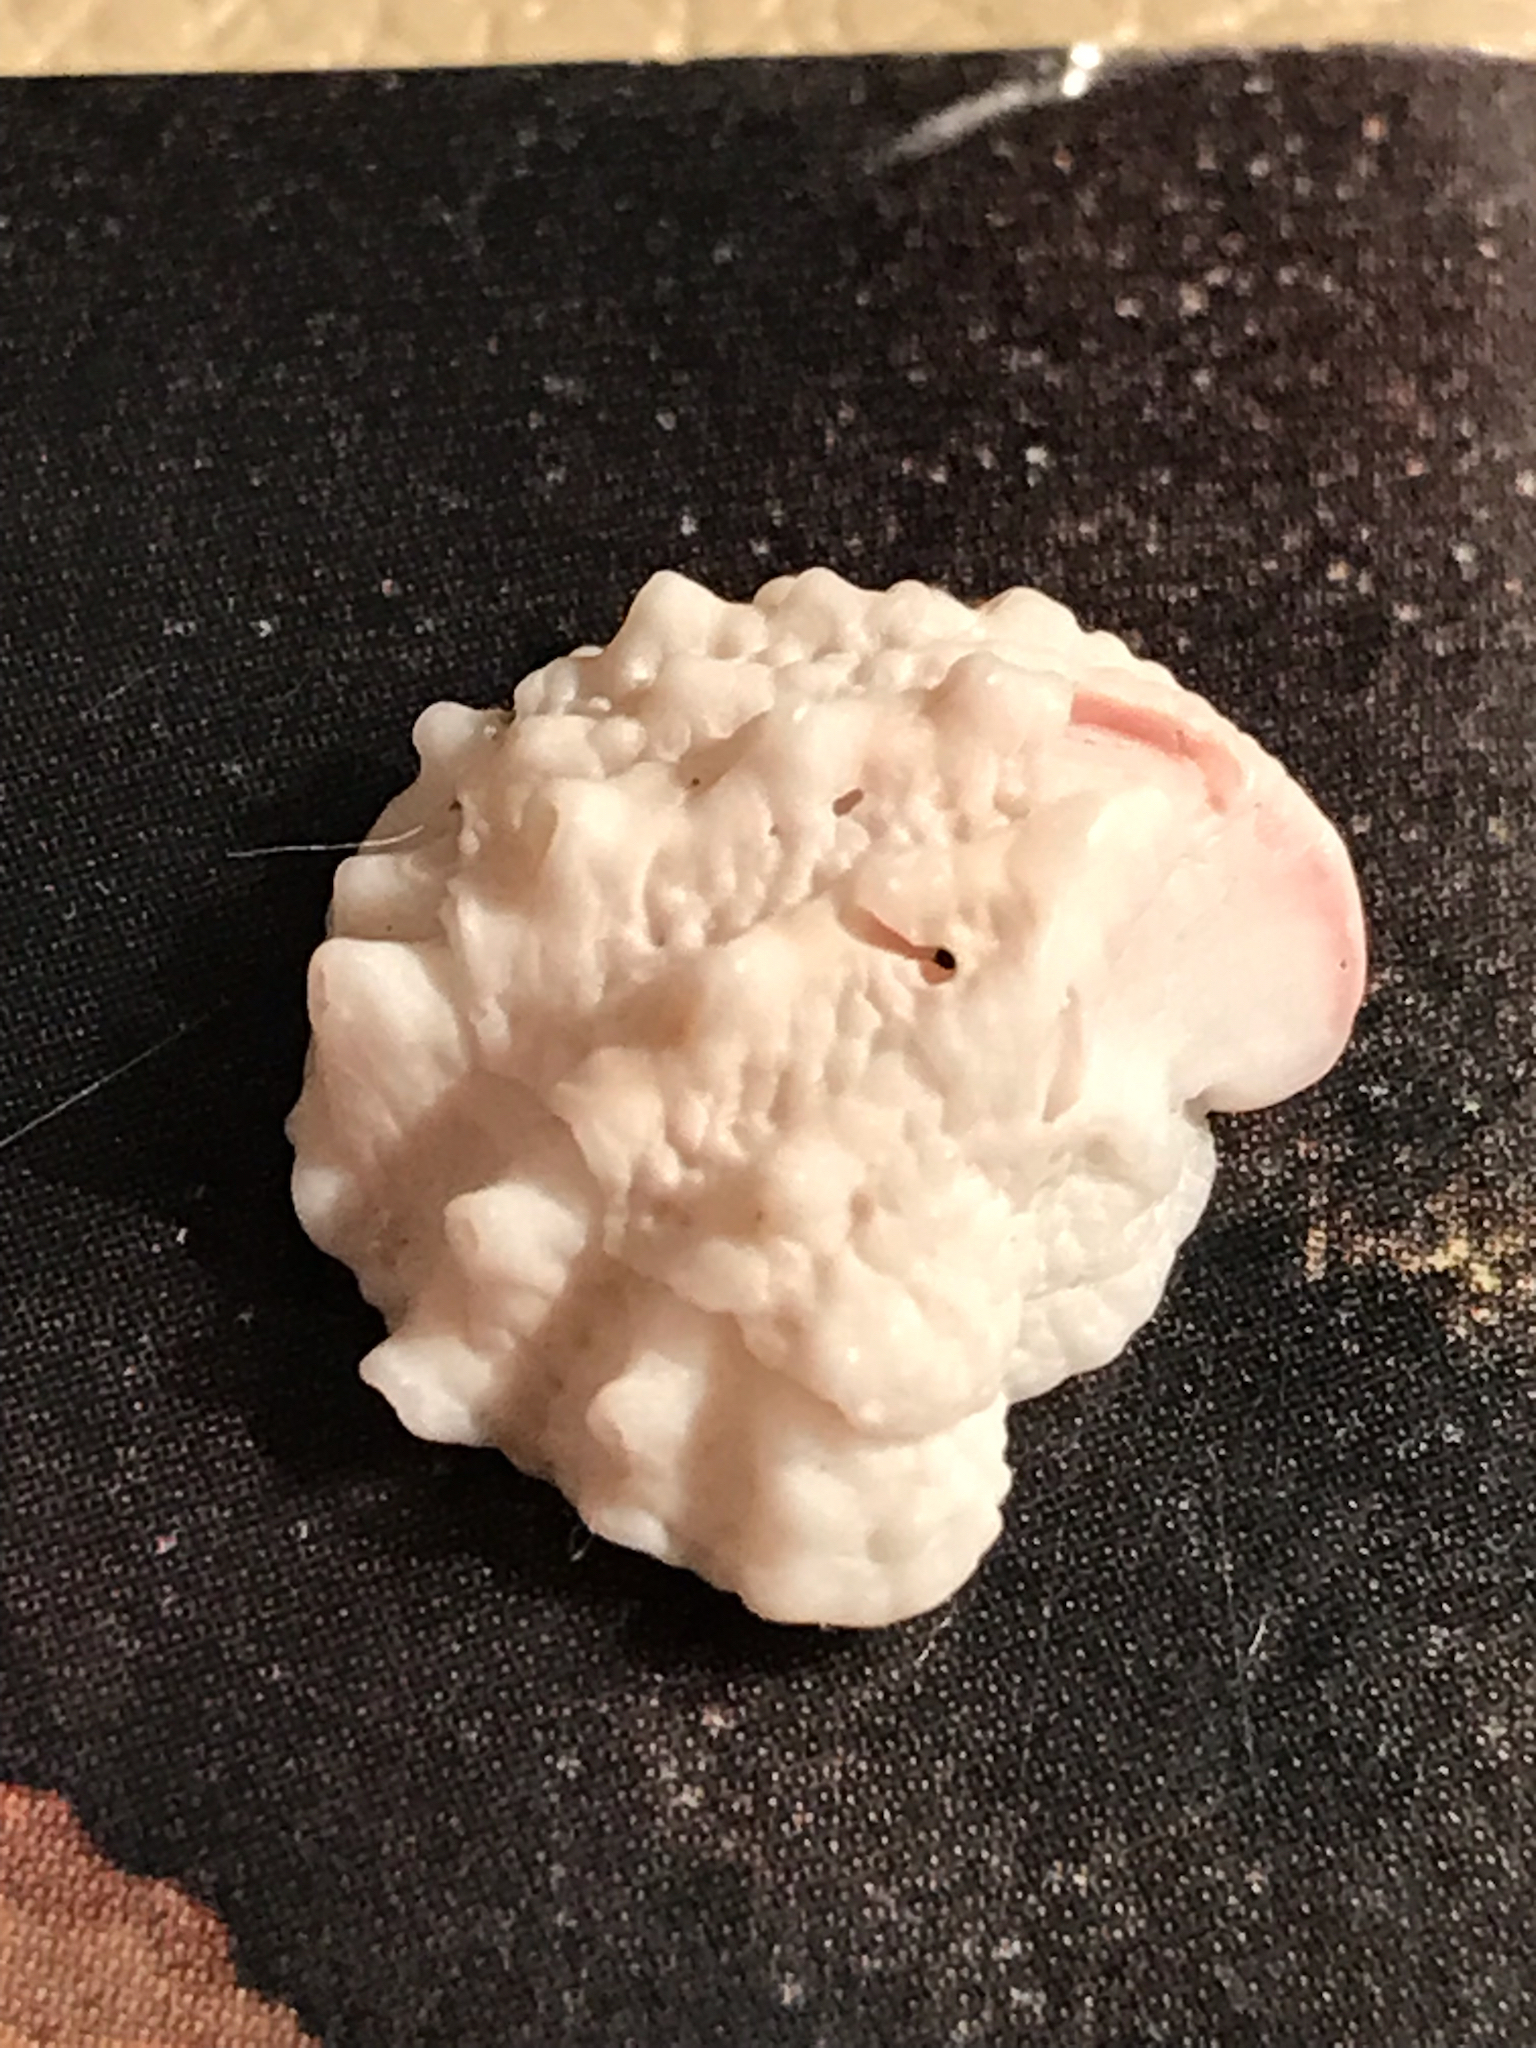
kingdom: Animalia
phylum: Mollusca
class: Bivalvia
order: Venerida
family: Chamidae
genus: Arcinella
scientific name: Arcinella cornuta
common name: Florida spiny jewel box
